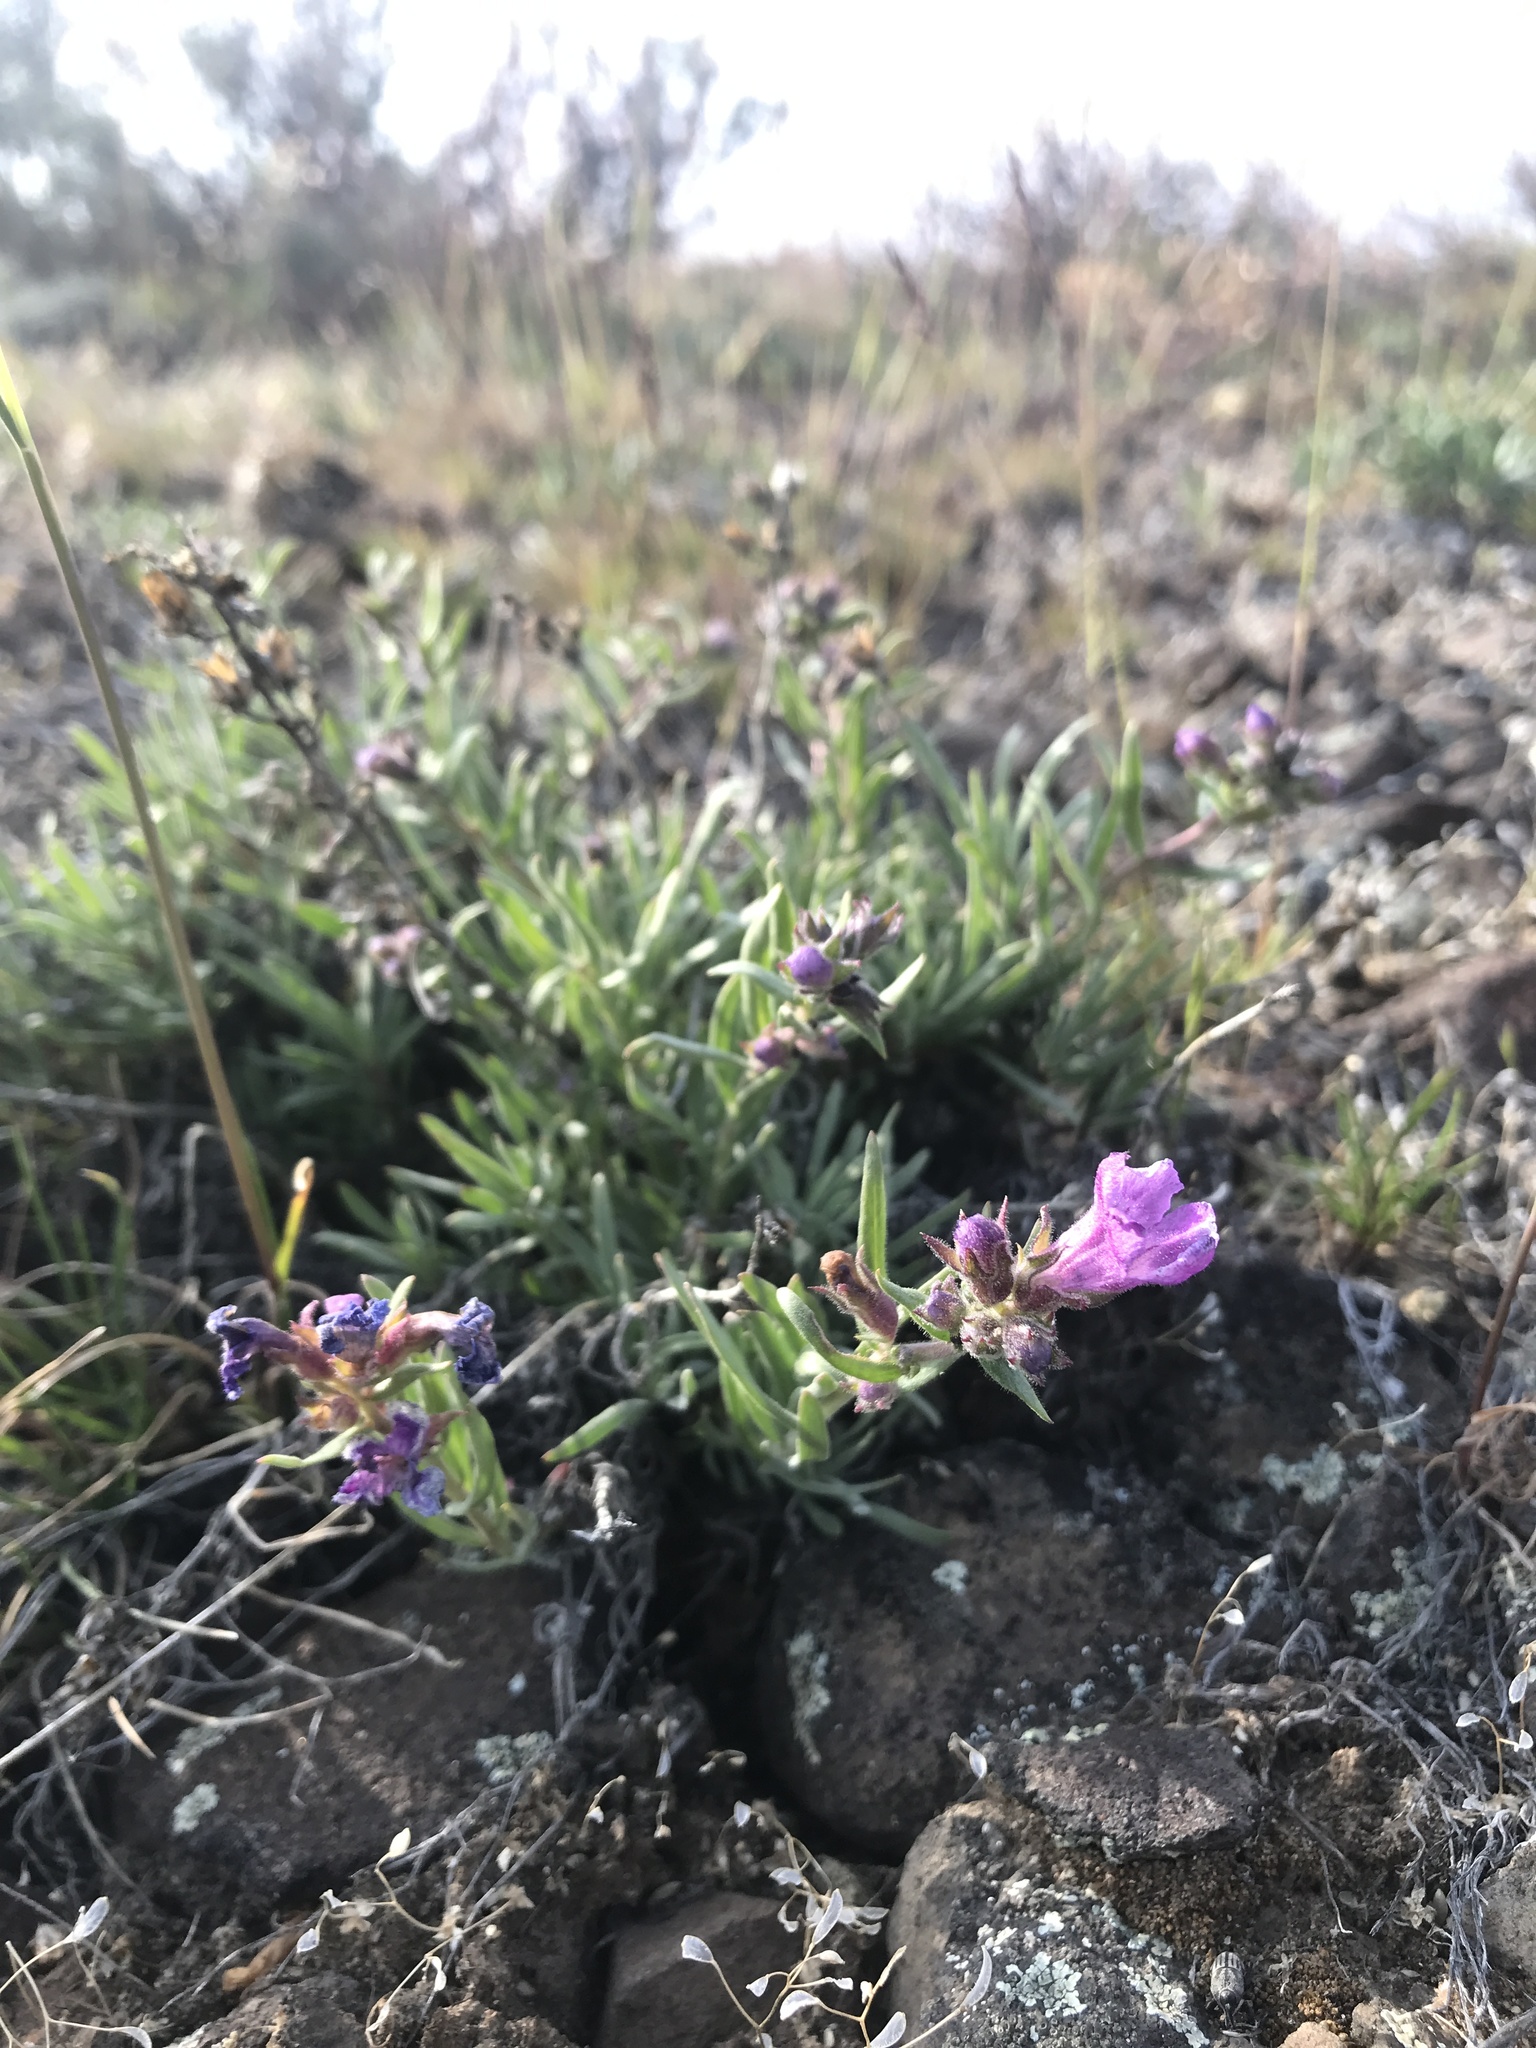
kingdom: Plantae
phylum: Tracheophyta
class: Magnoliopsida
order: Lamiales
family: Plantaginaceae
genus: Penstemon
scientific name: Penstemon gairdneri
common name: Gairdner's penstemon
